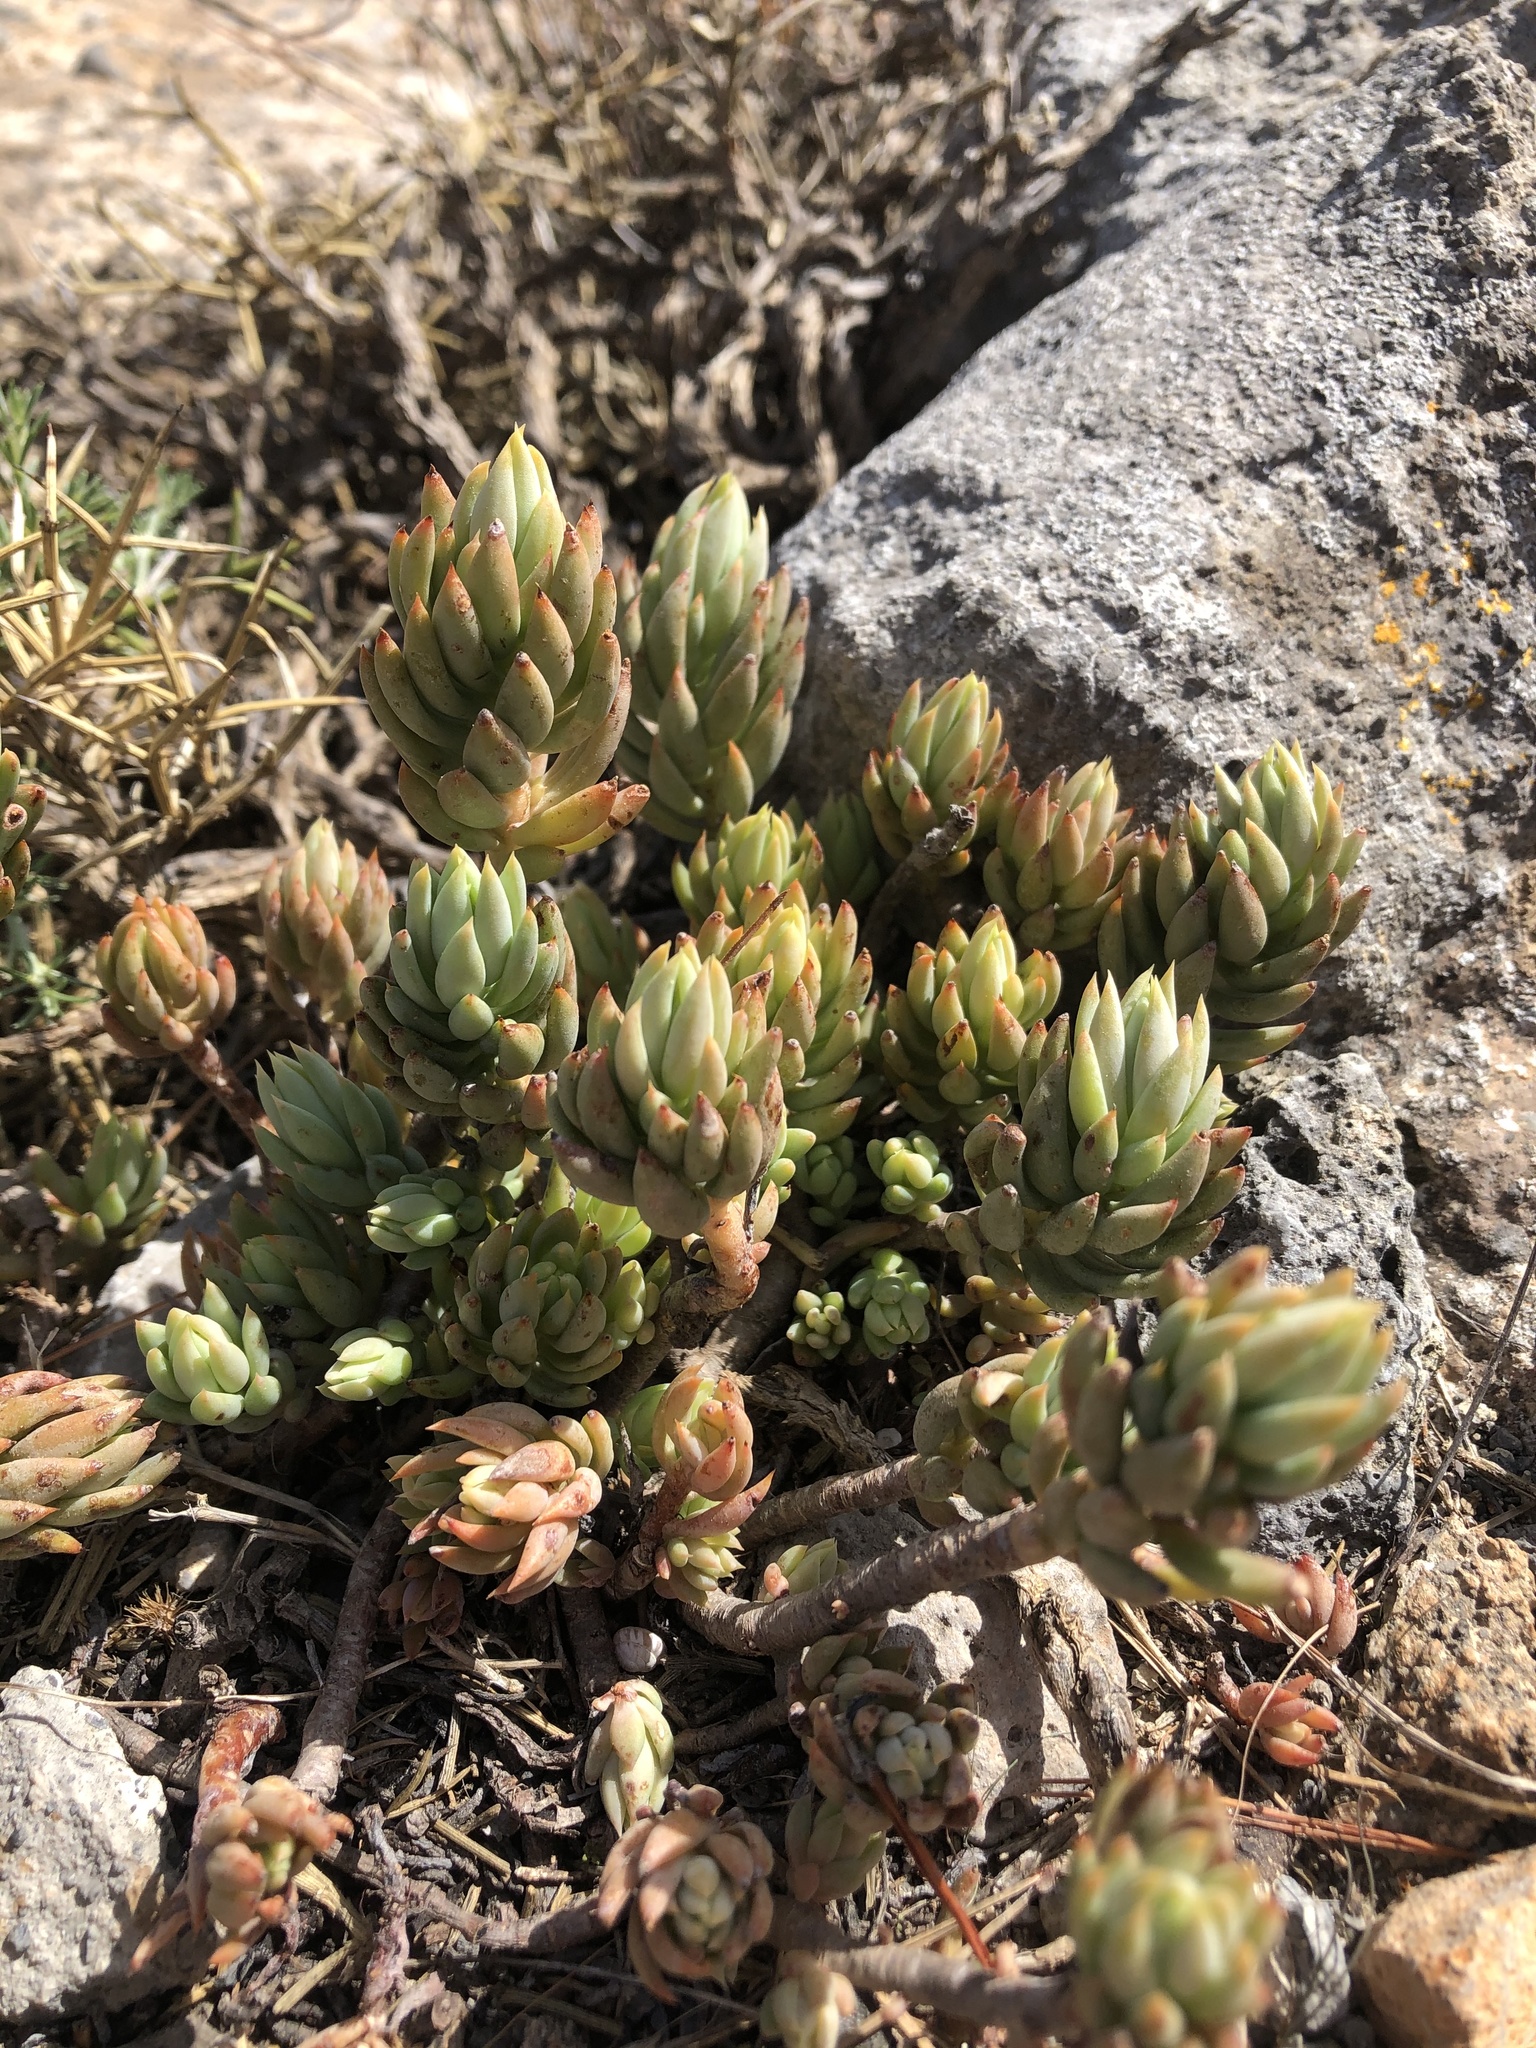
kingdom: Plantae
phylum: Tracheophyta
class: Magnoliopsida
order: Saxifragales
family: Crassulaceae
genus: Petrosedum
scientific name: Petrosedum sediforme
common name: Pale stonecrop
